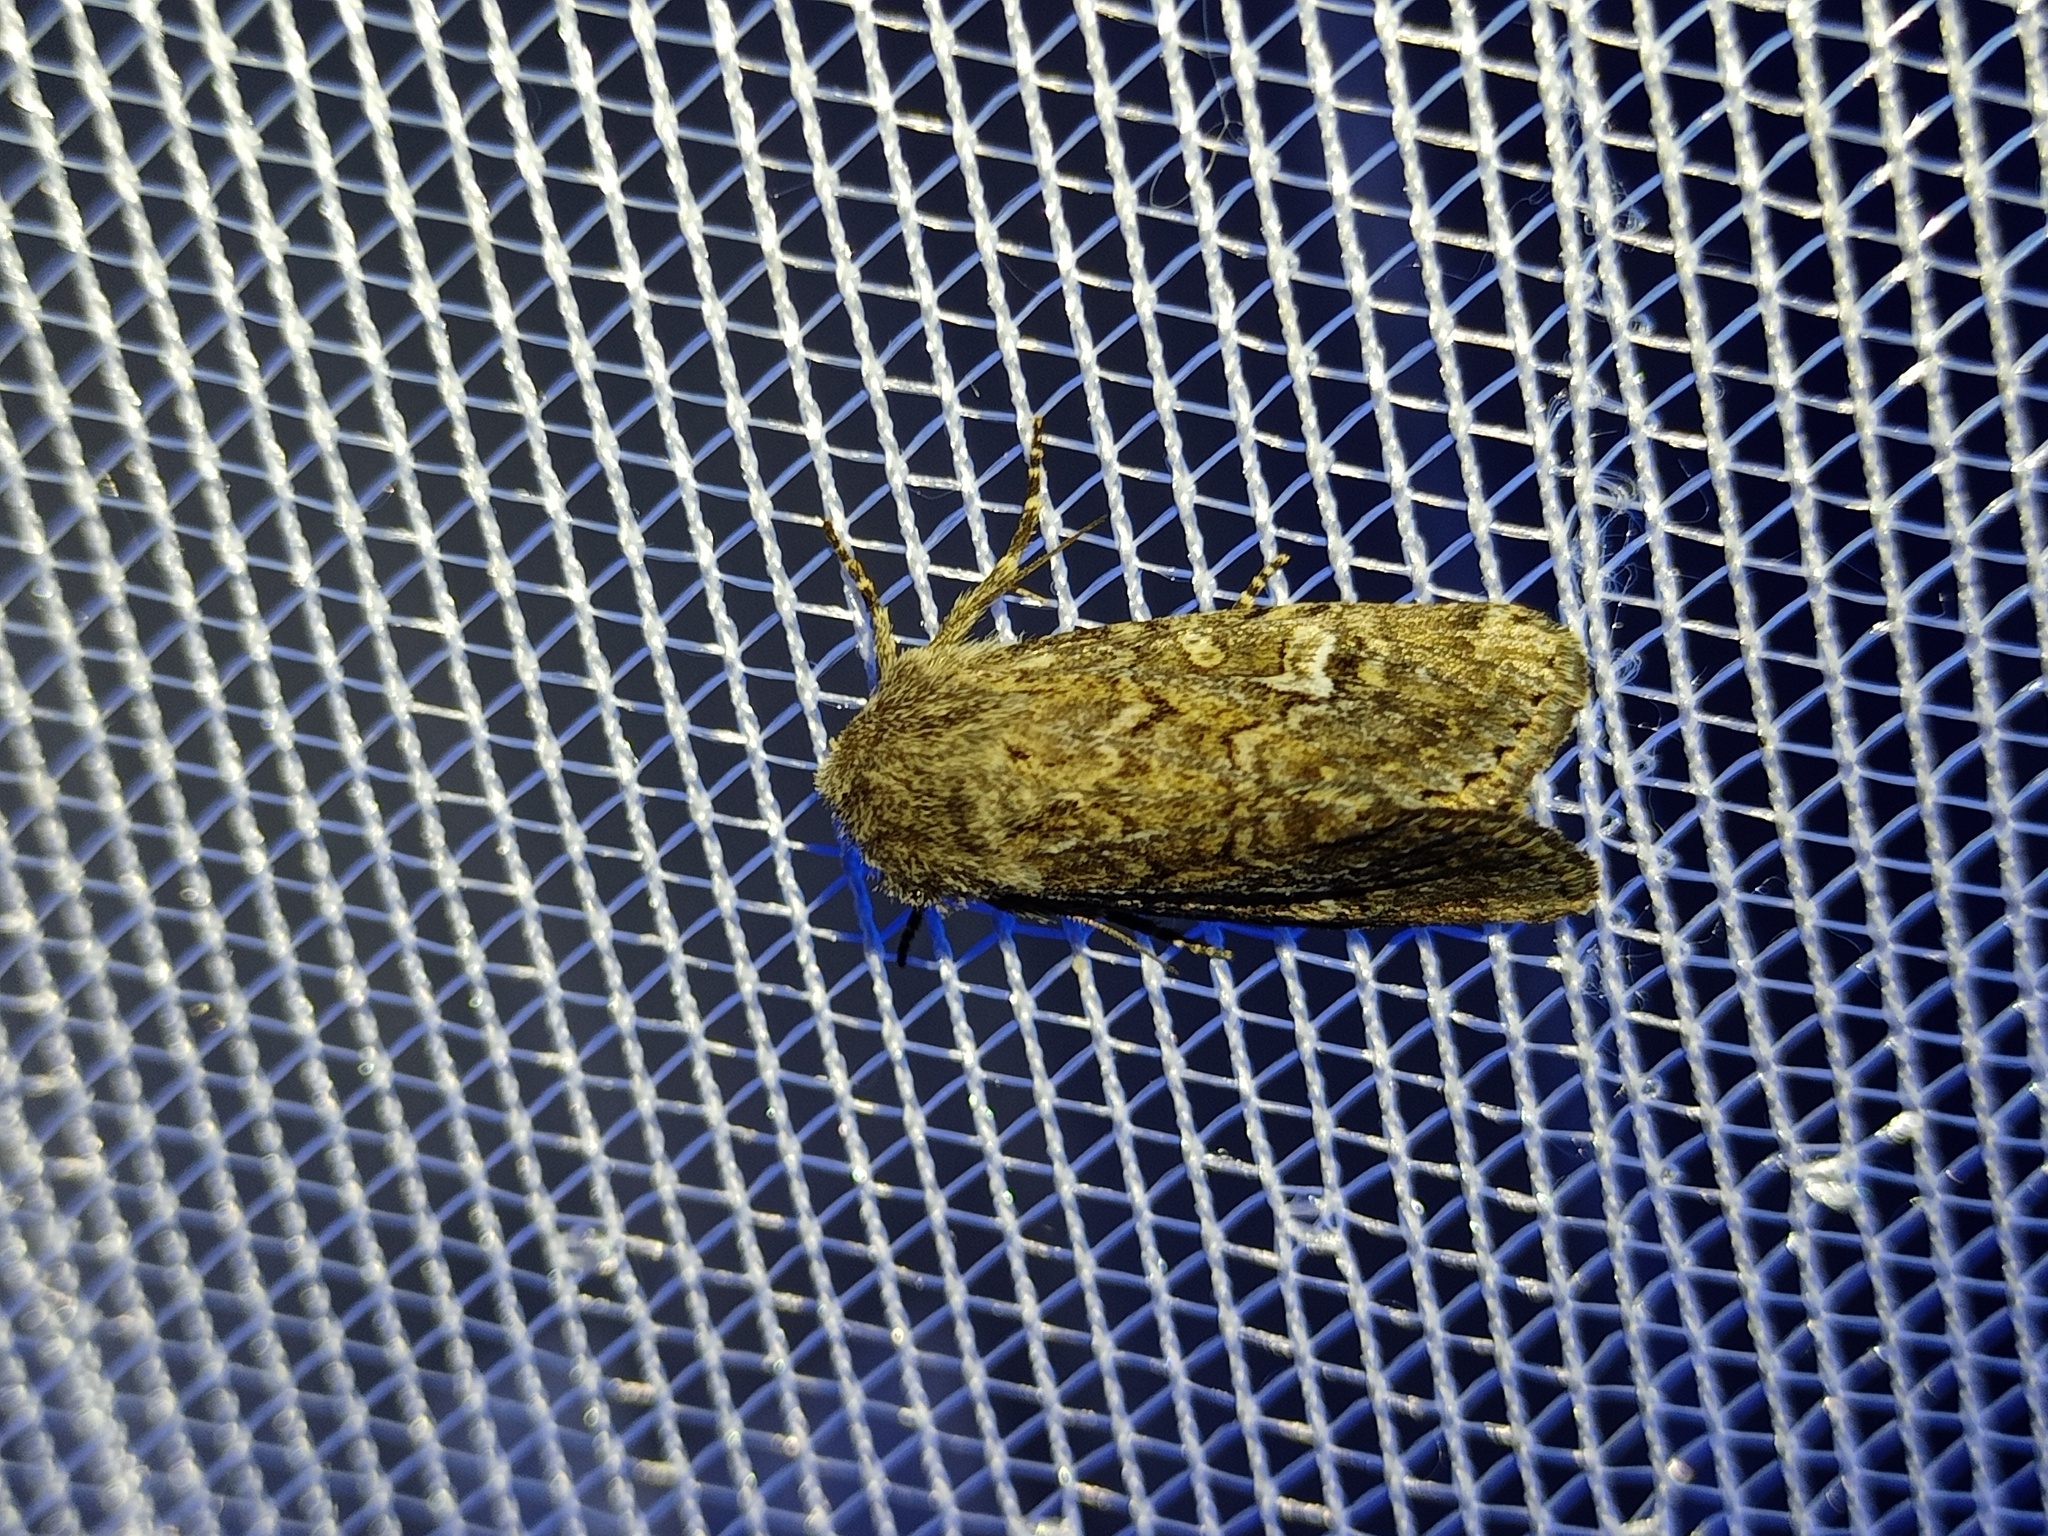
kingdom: Animalia
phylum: Arthropoda
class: Insecta
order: Lepidoptera
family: Noctuidae
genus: Luperina
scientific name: Luperina nickerlii
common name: Sandhill rustic
